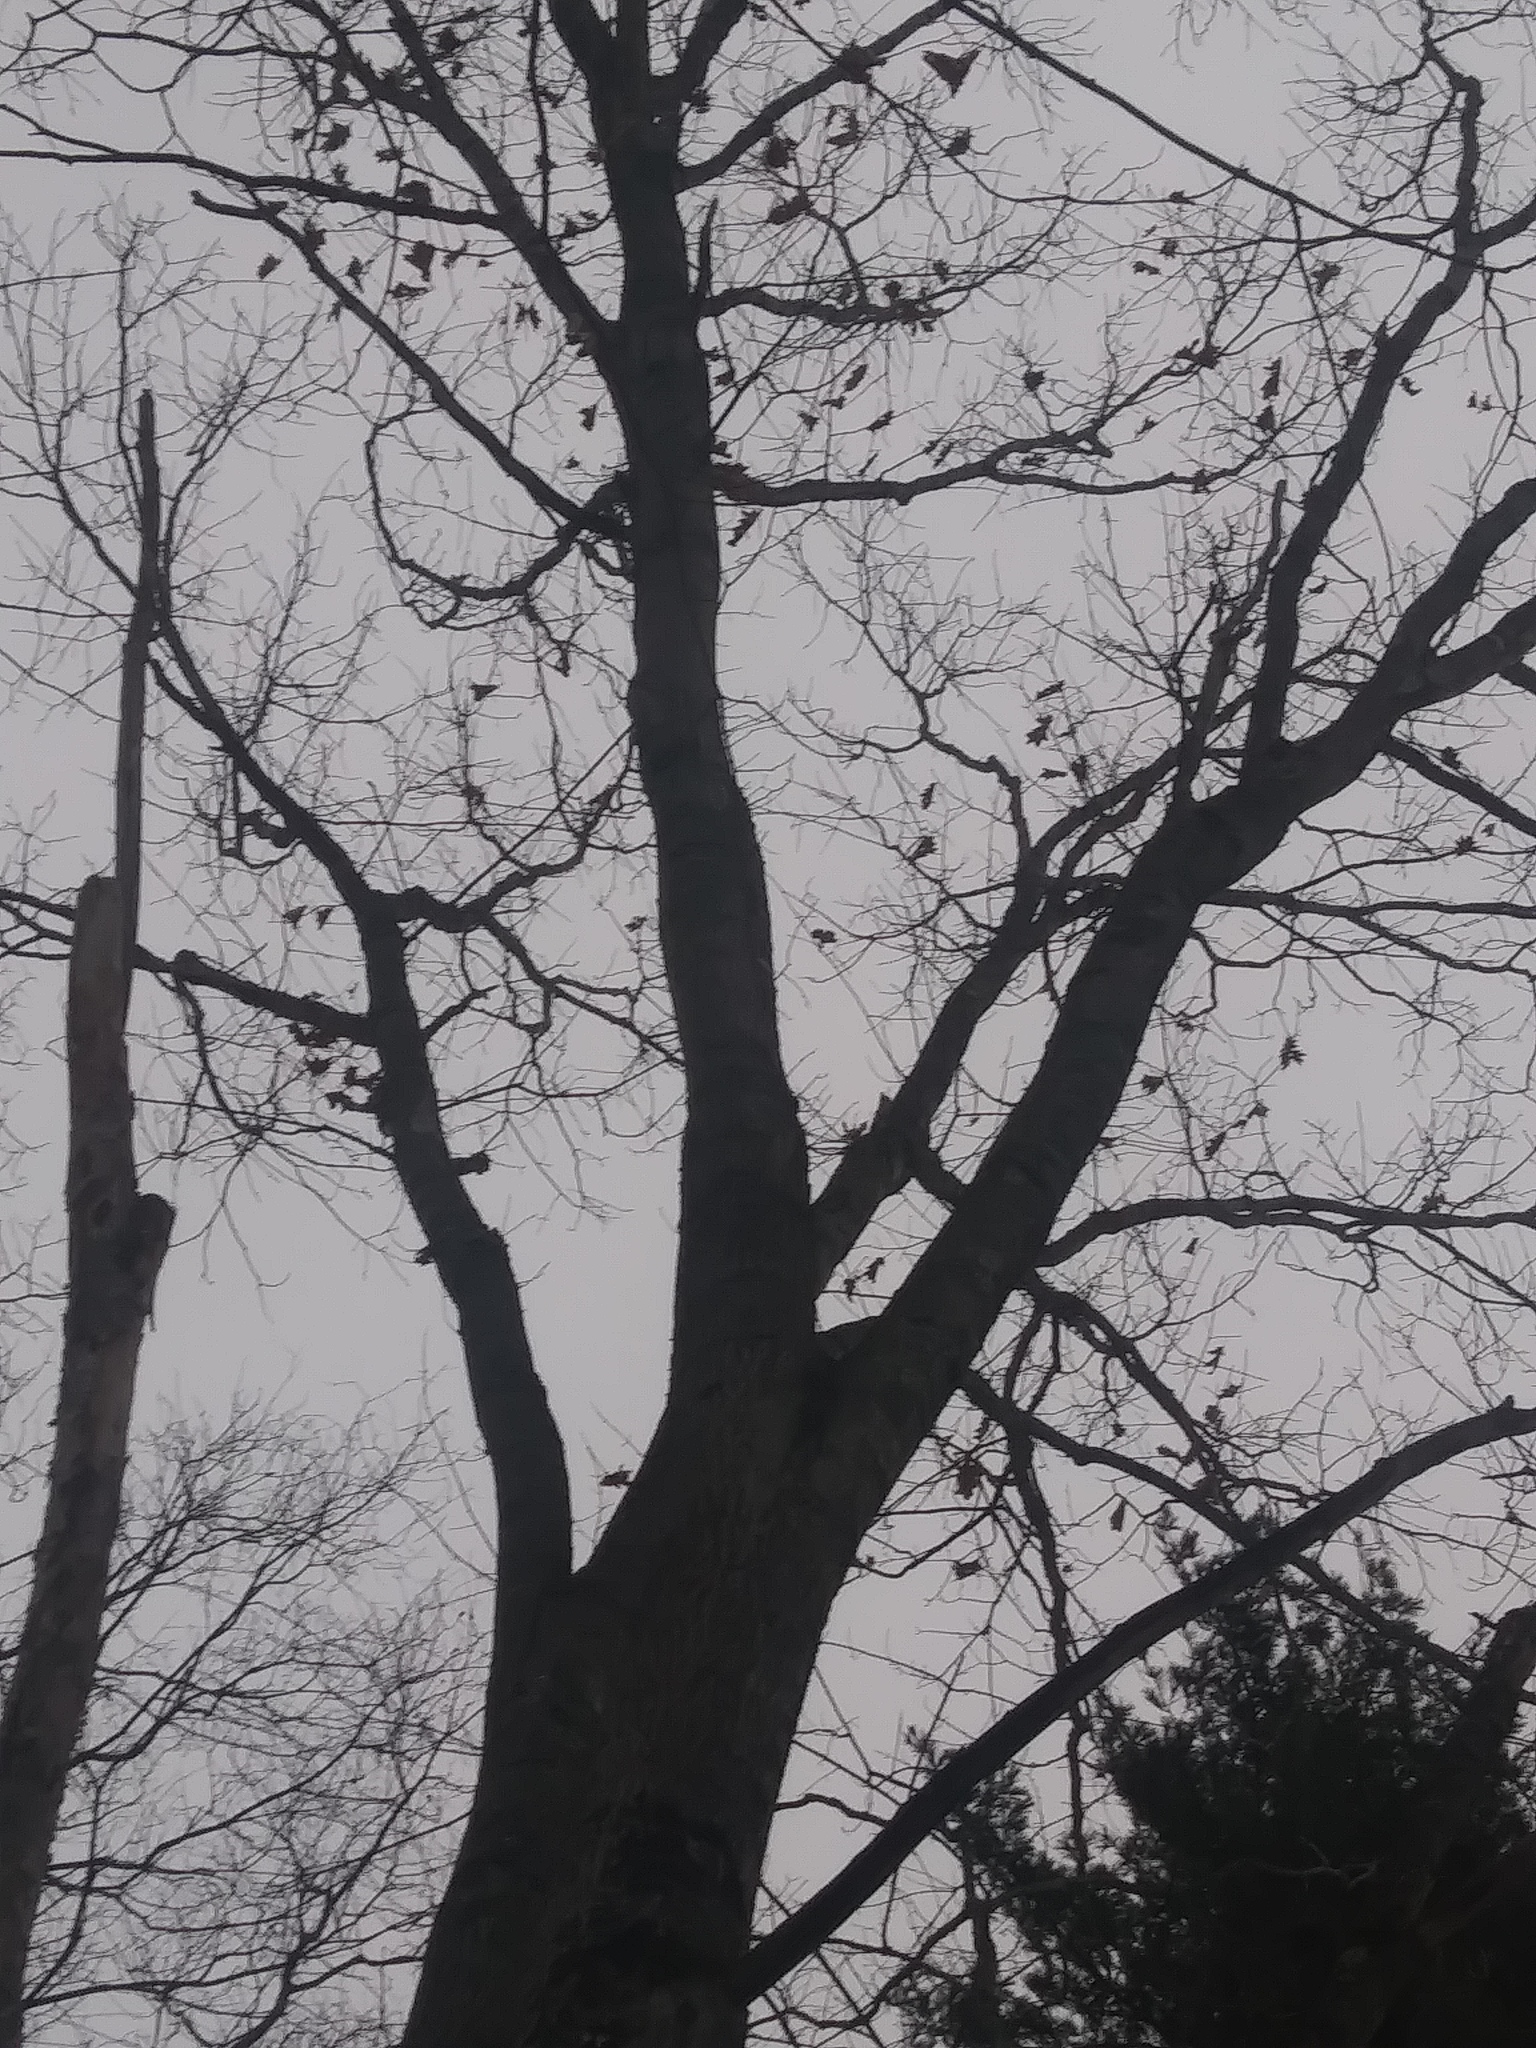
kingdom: Plantae
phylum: Tracheophyta
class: Magnoliopsida
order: Fagales
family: Fagaceae
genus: Quercus
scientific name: Quercus rubra
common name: Red oak
